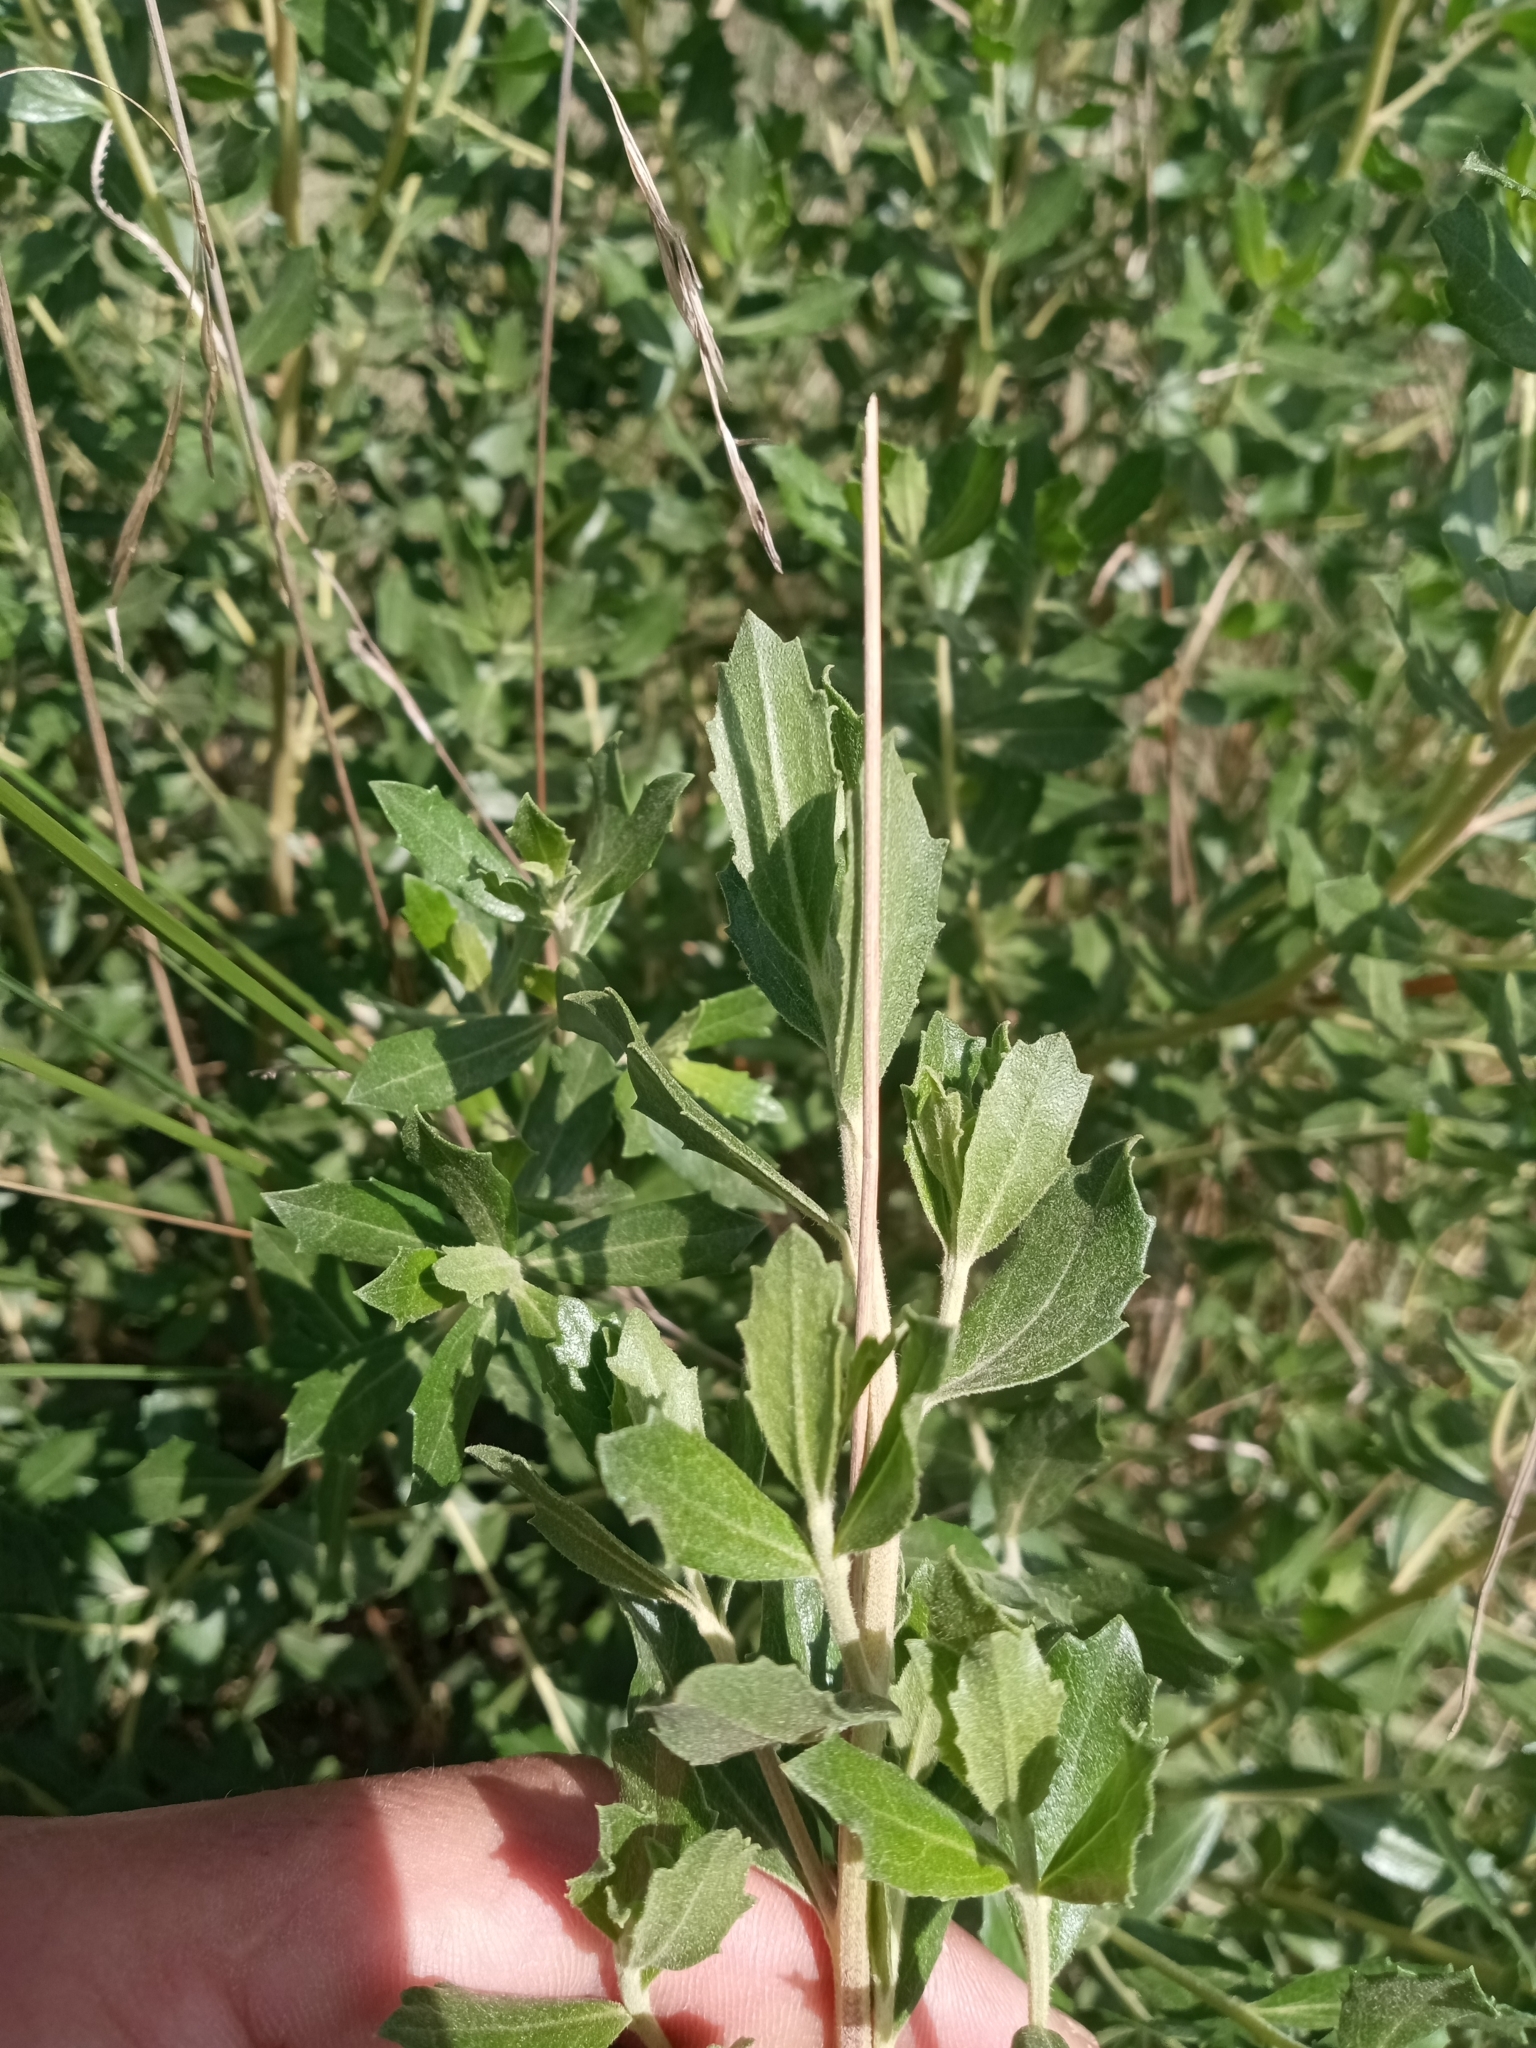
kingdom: Plantae
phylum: Tracheophyta
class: Magnoliopsida
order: Asterales
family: Asteraceae
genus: Baccharis
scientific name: Baccharis dracunculifolia
